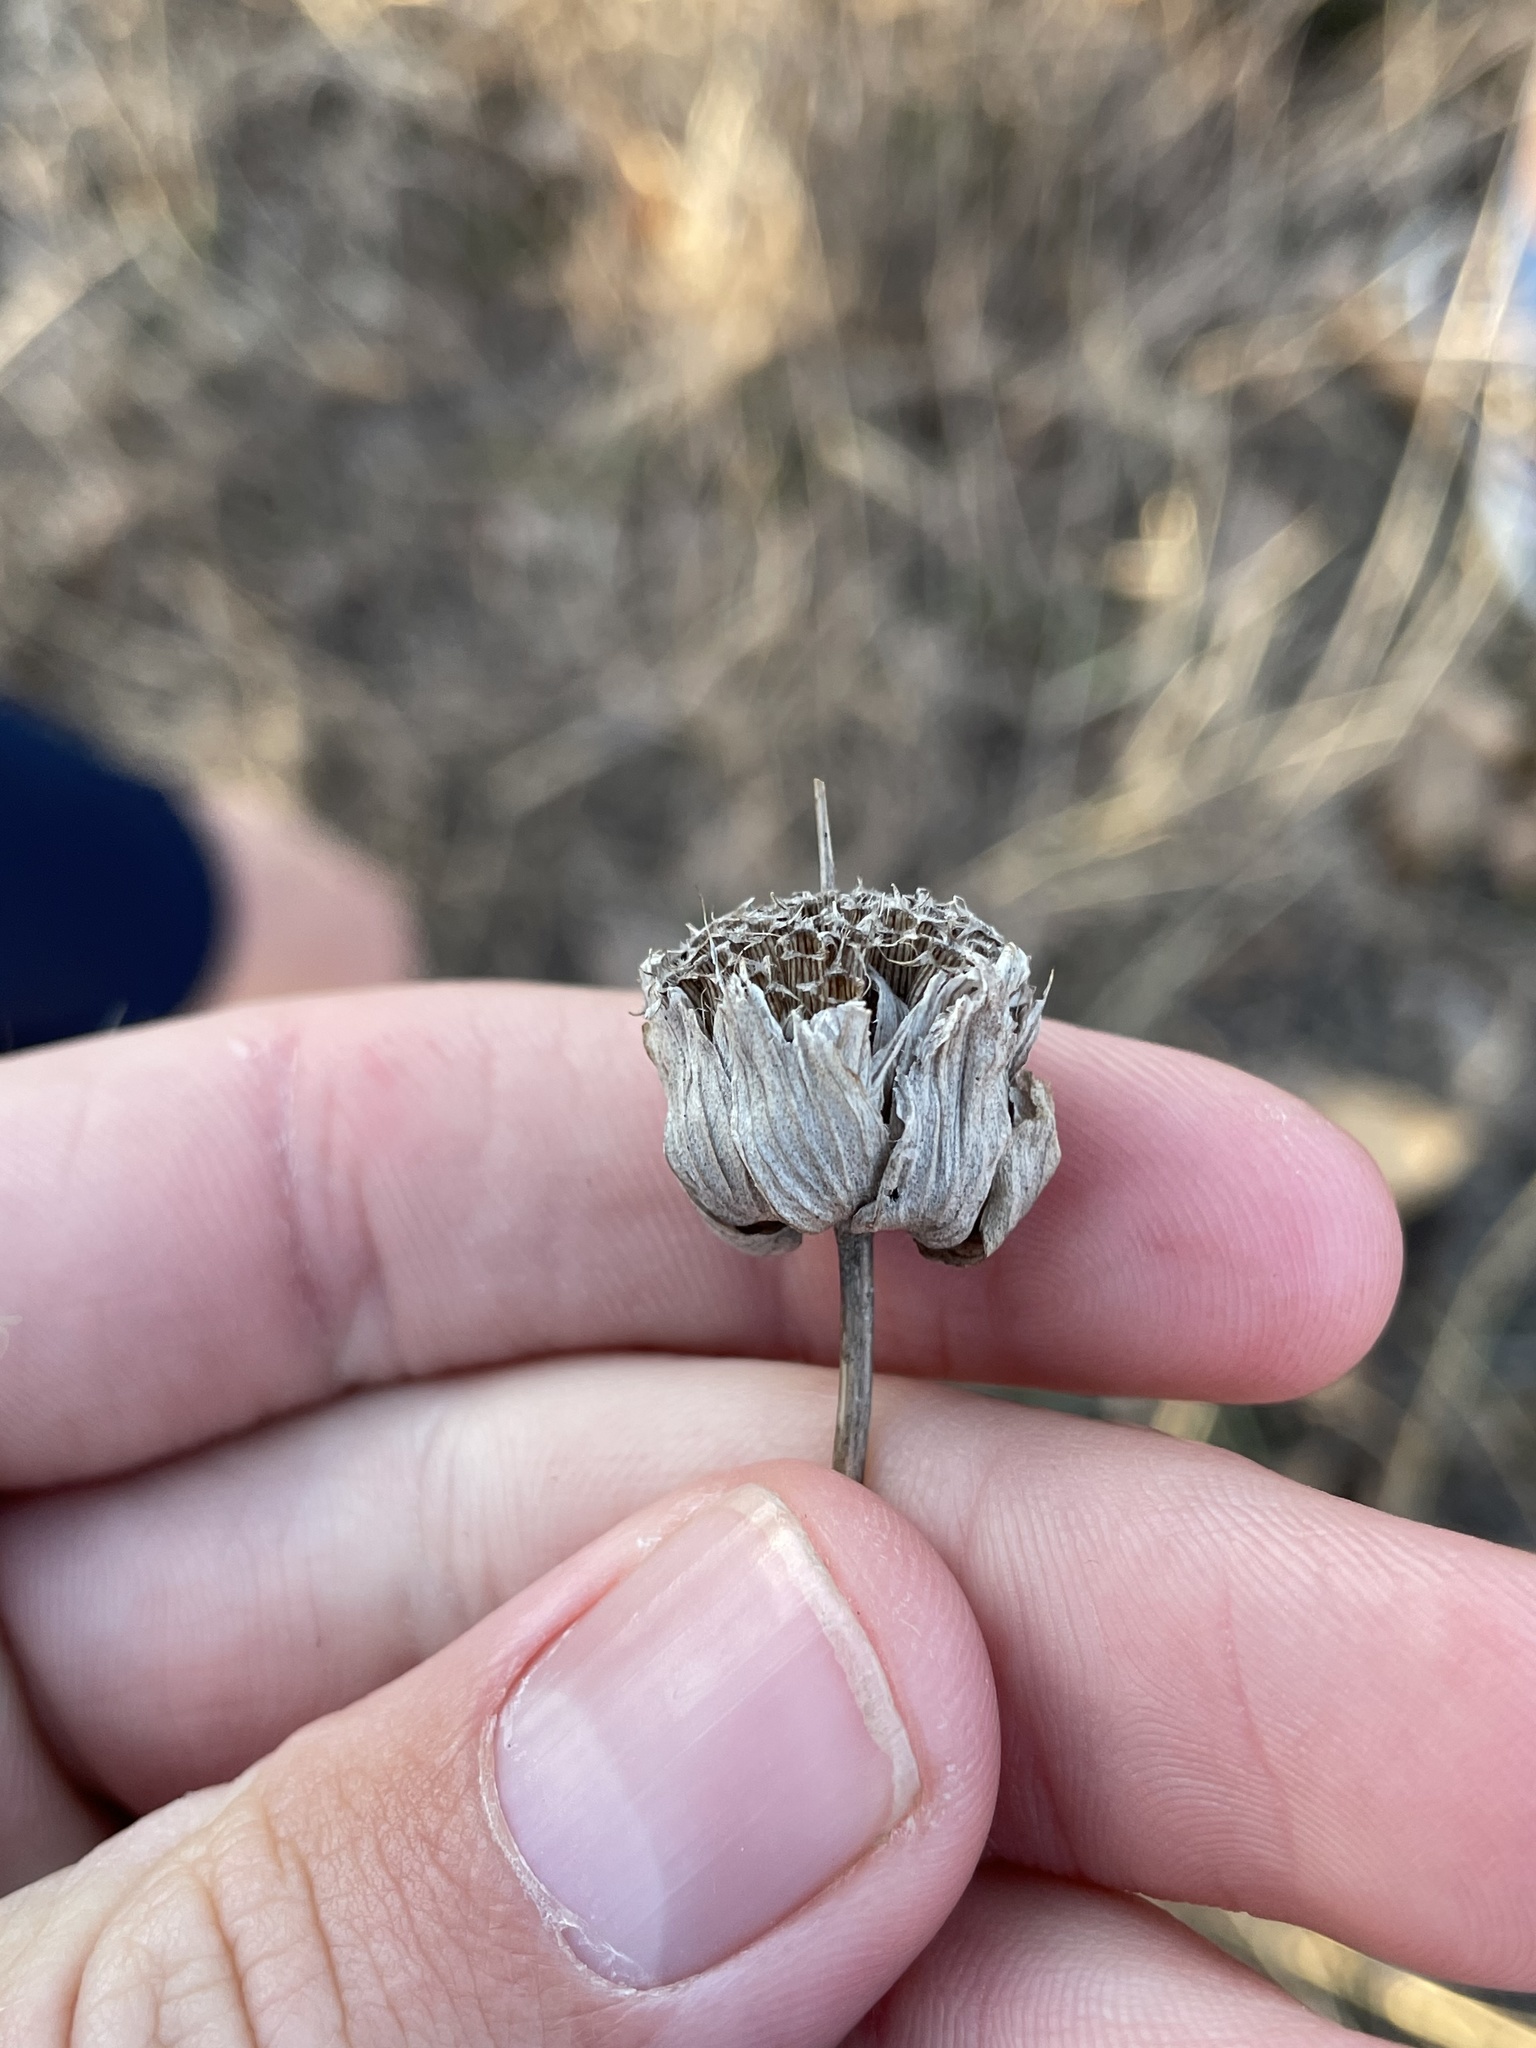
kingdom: Plantae
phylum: Tracheophyta
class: Magnoliopsida
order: Lamiales
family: Lamiaceae
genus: Monarda
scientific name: Monarda citriodora
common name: Lemon beebalm
